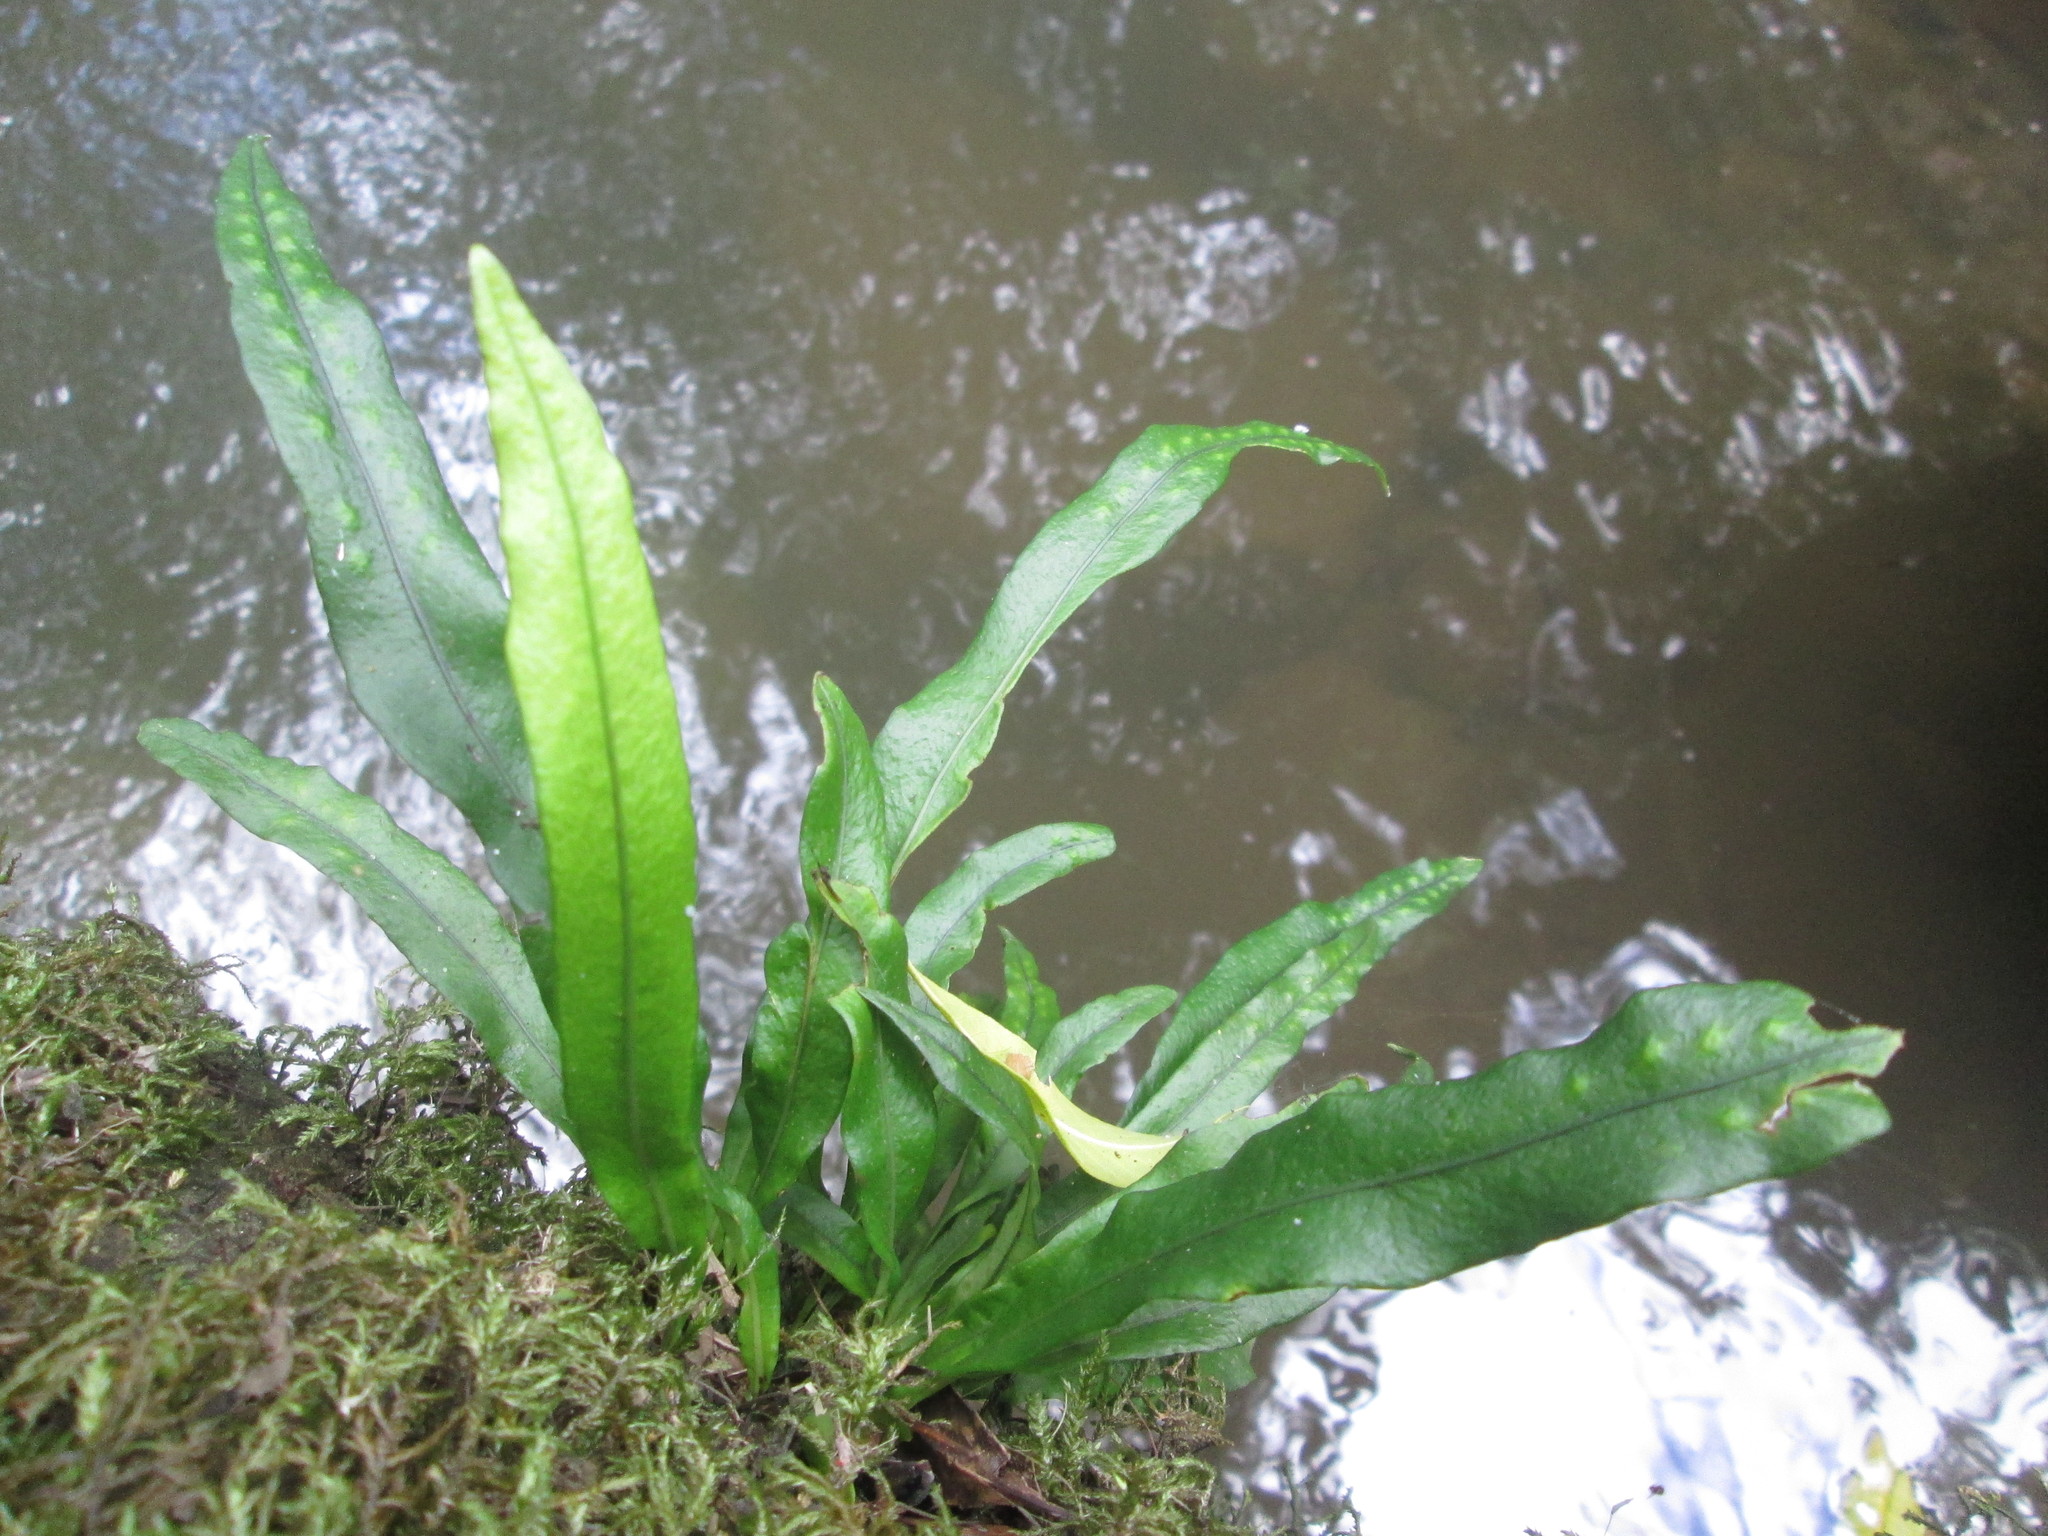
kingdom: Plantae
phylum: Tracheophyta
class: Polypodiopsida
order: Polypodiales
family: Polypodiaceae
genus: Lepisorus
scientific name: Lepisorus schraderi
